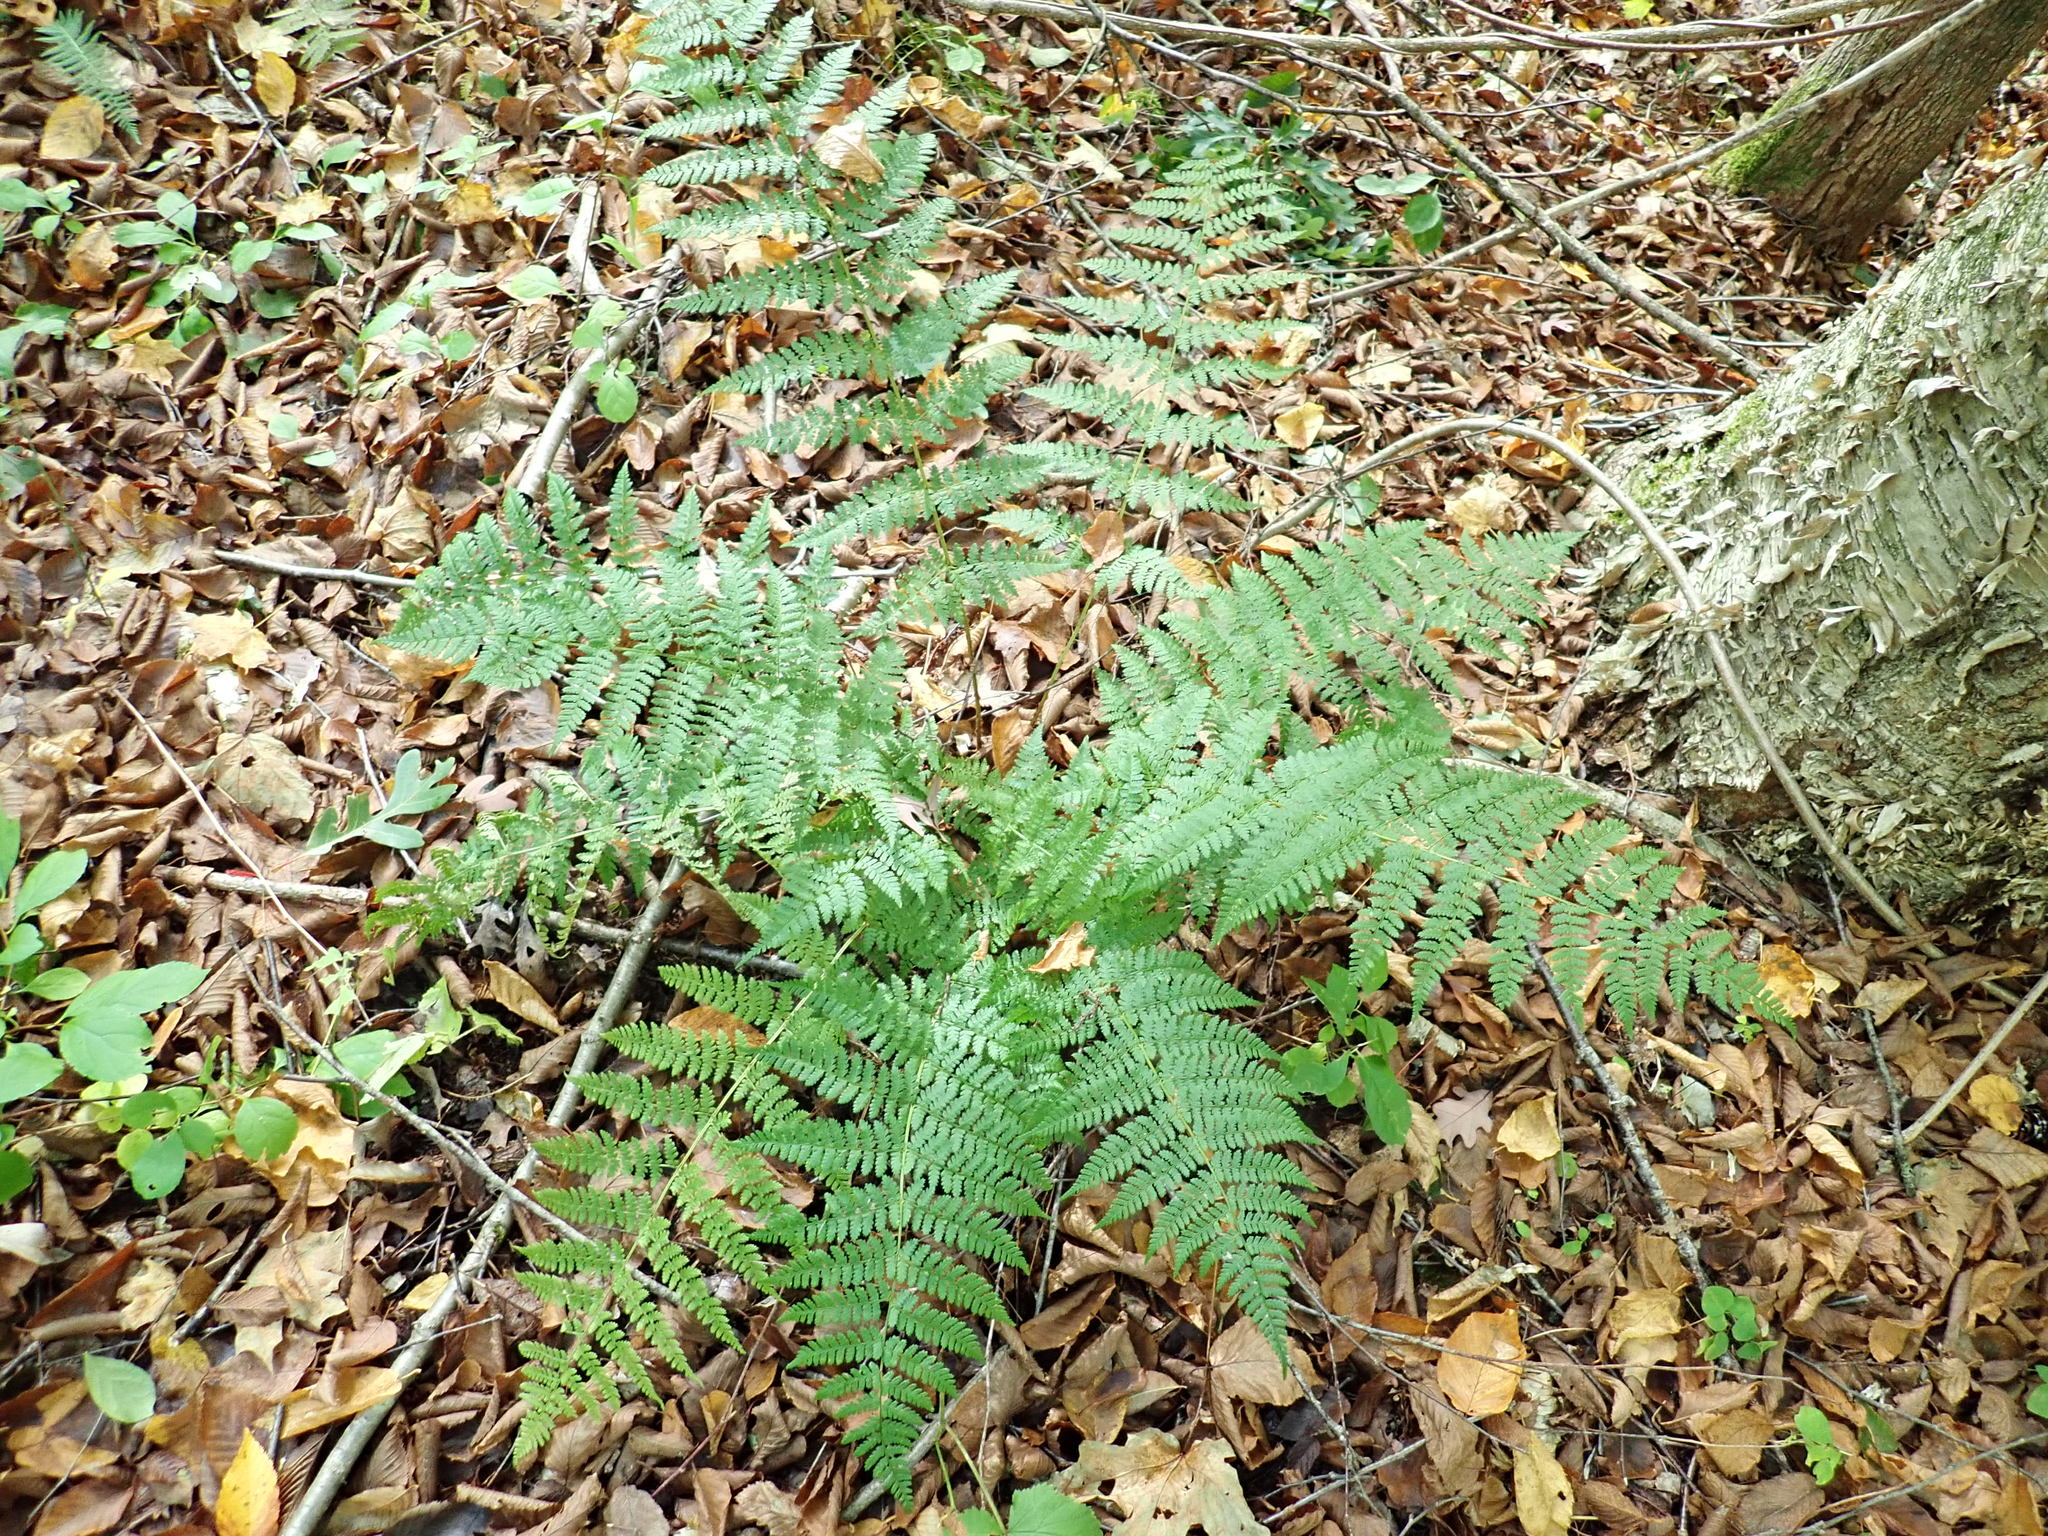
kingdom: Plantae
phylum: Tracheophyta
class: Polypodiopsida
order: Polypodiales
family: Dryopteridaceae
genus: Dryopteris
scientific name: Dryopteris intermedia
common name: Evergreen wood fern
